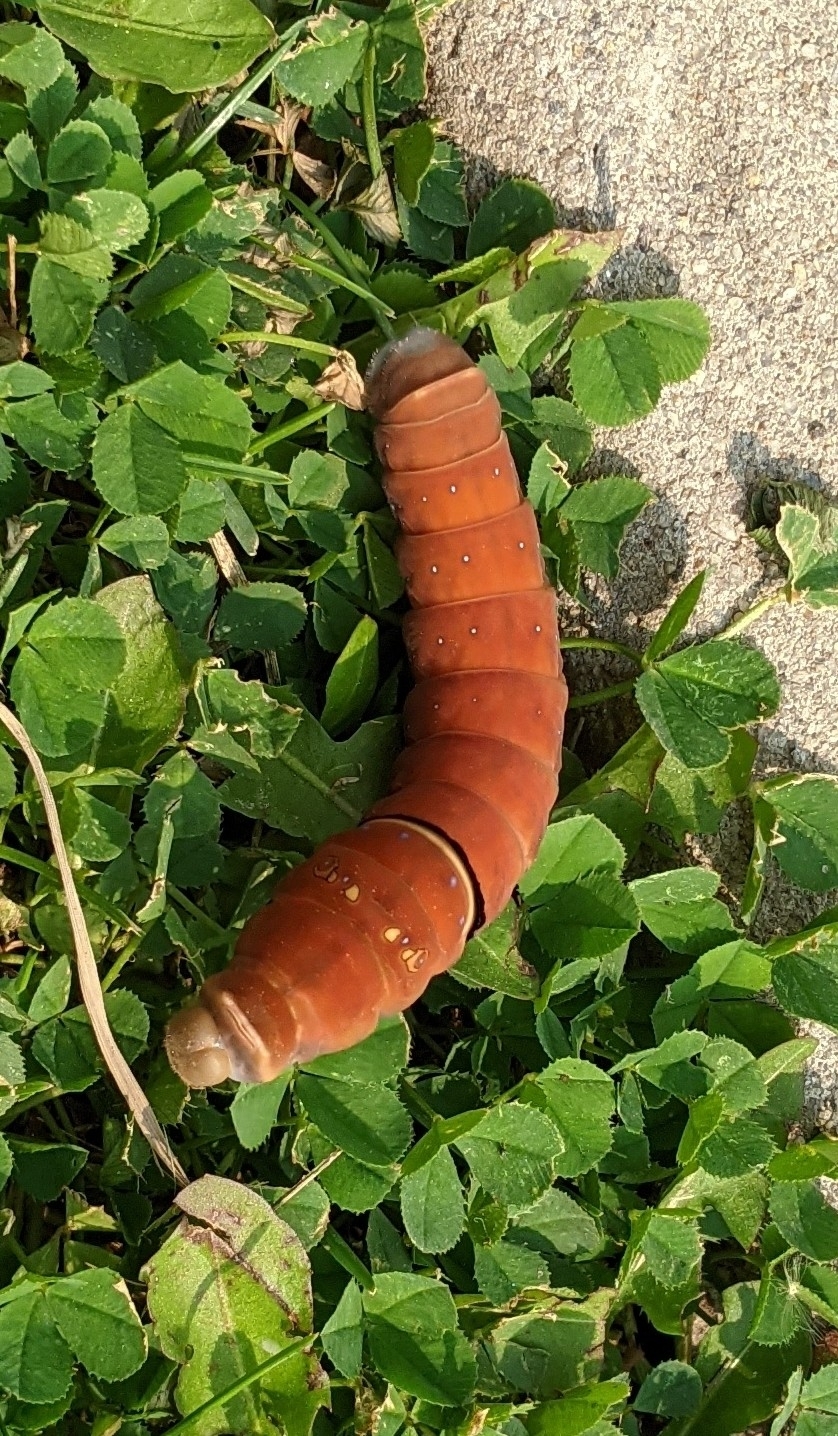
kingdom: Animalia
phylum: Arthropoda
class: Insecta
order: Lepidoptera
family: Papilionidae
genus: Papilio
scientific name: Papilio multicaudata
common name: Two-tailed tiger swallowtail
